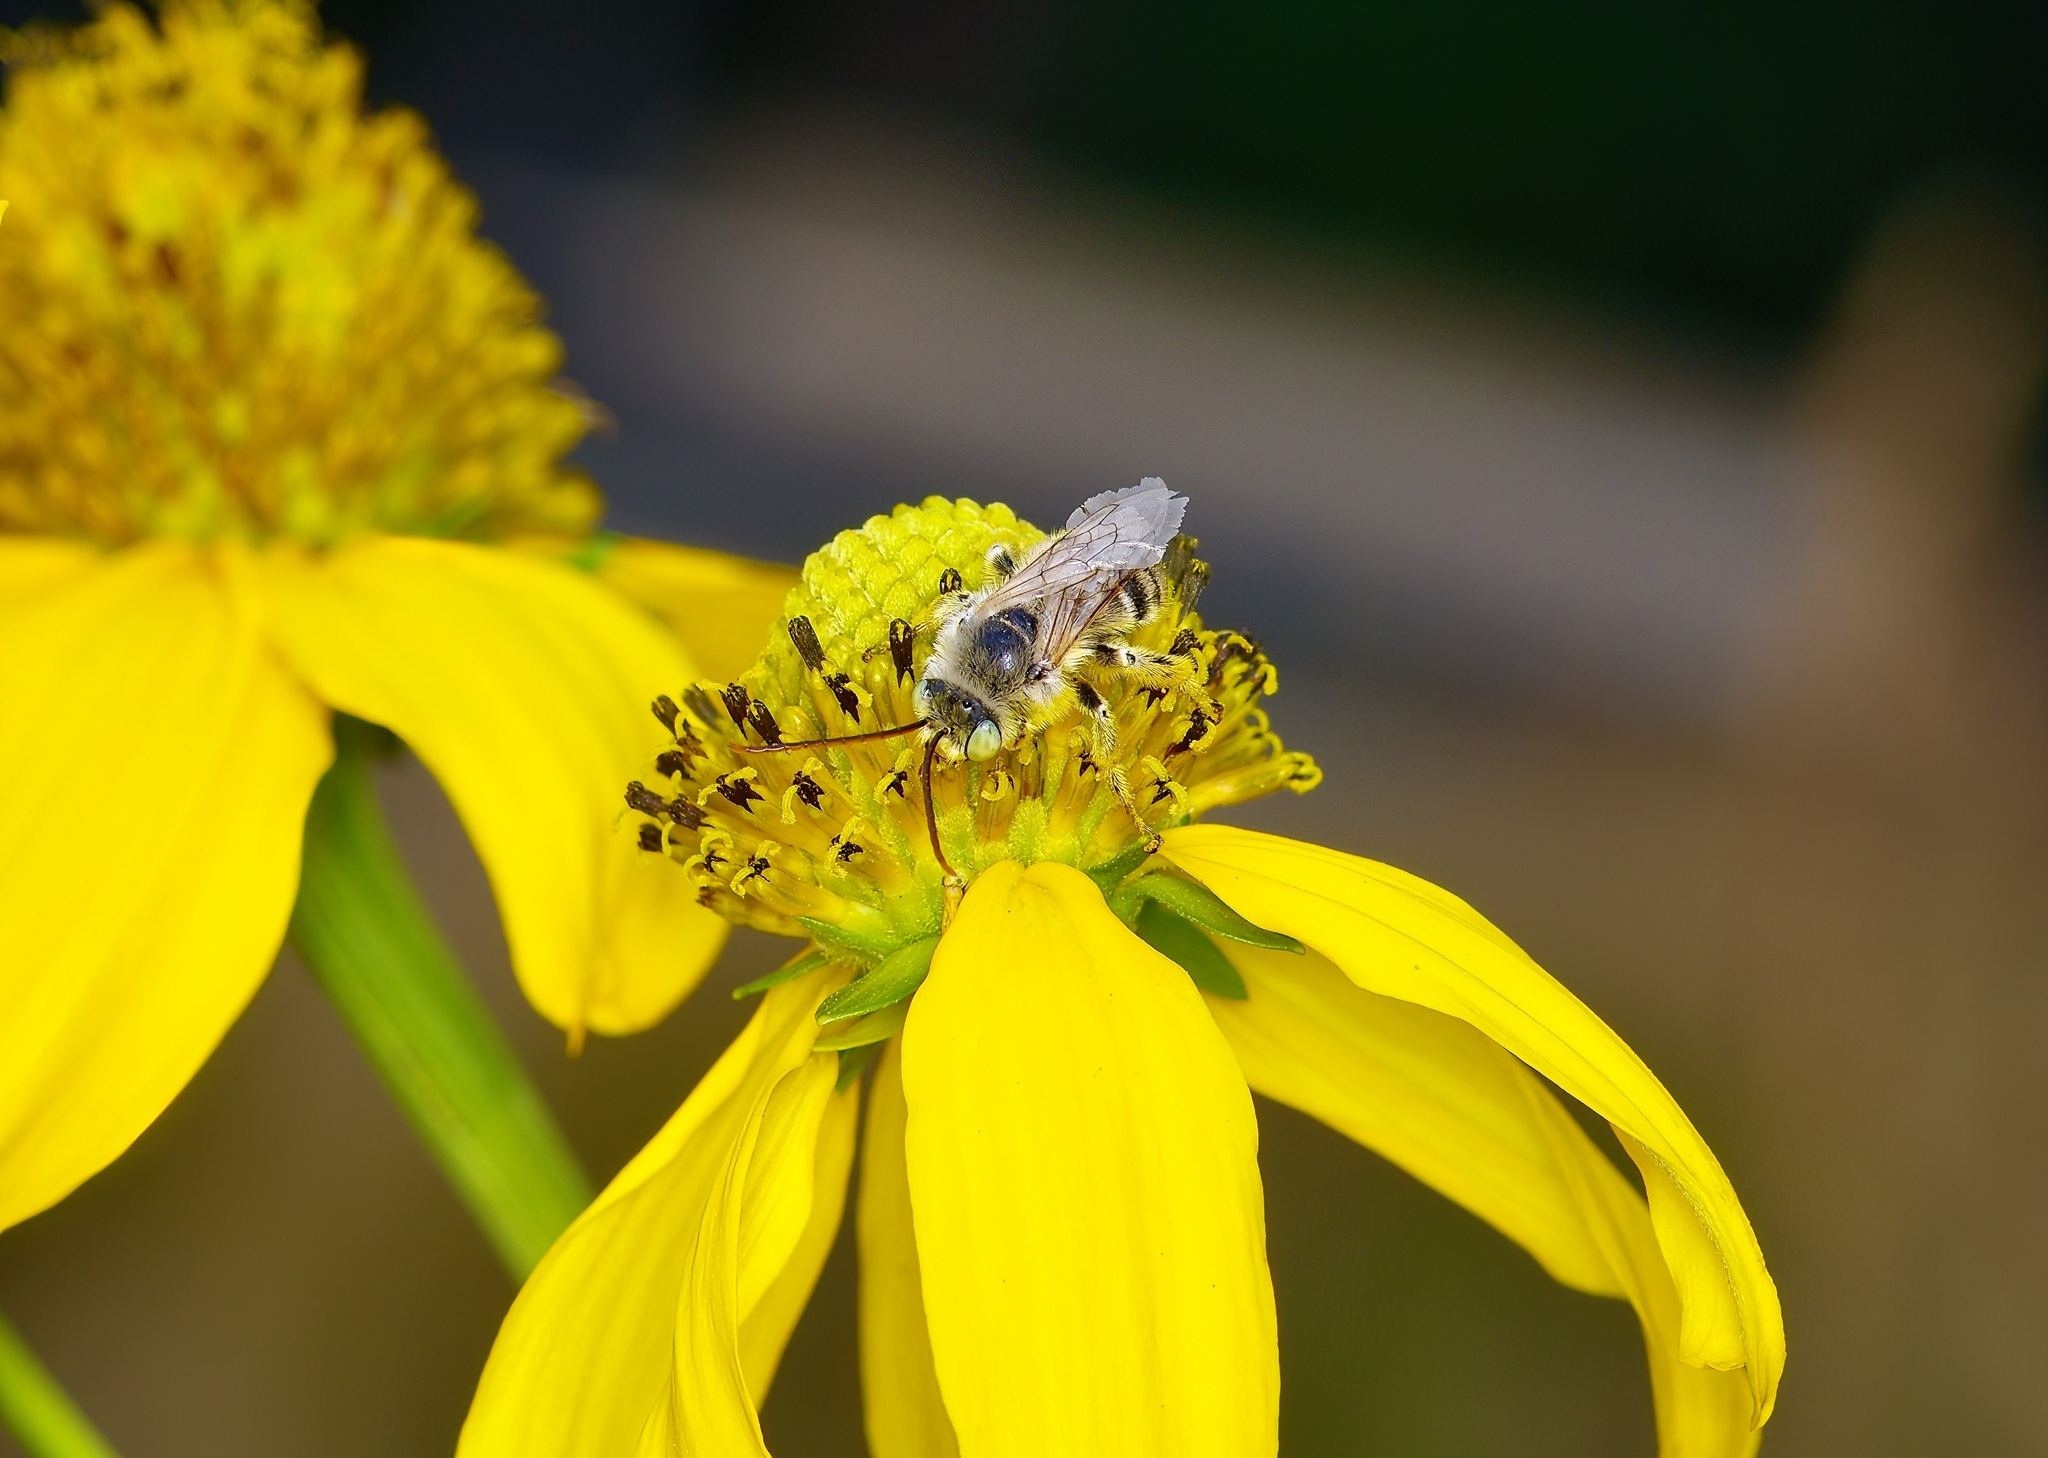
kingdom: Animalia
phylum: Arthropoda
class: Insecta
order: Hymenoptera
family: Apidae
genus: Melissodes
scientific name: Melissodes
